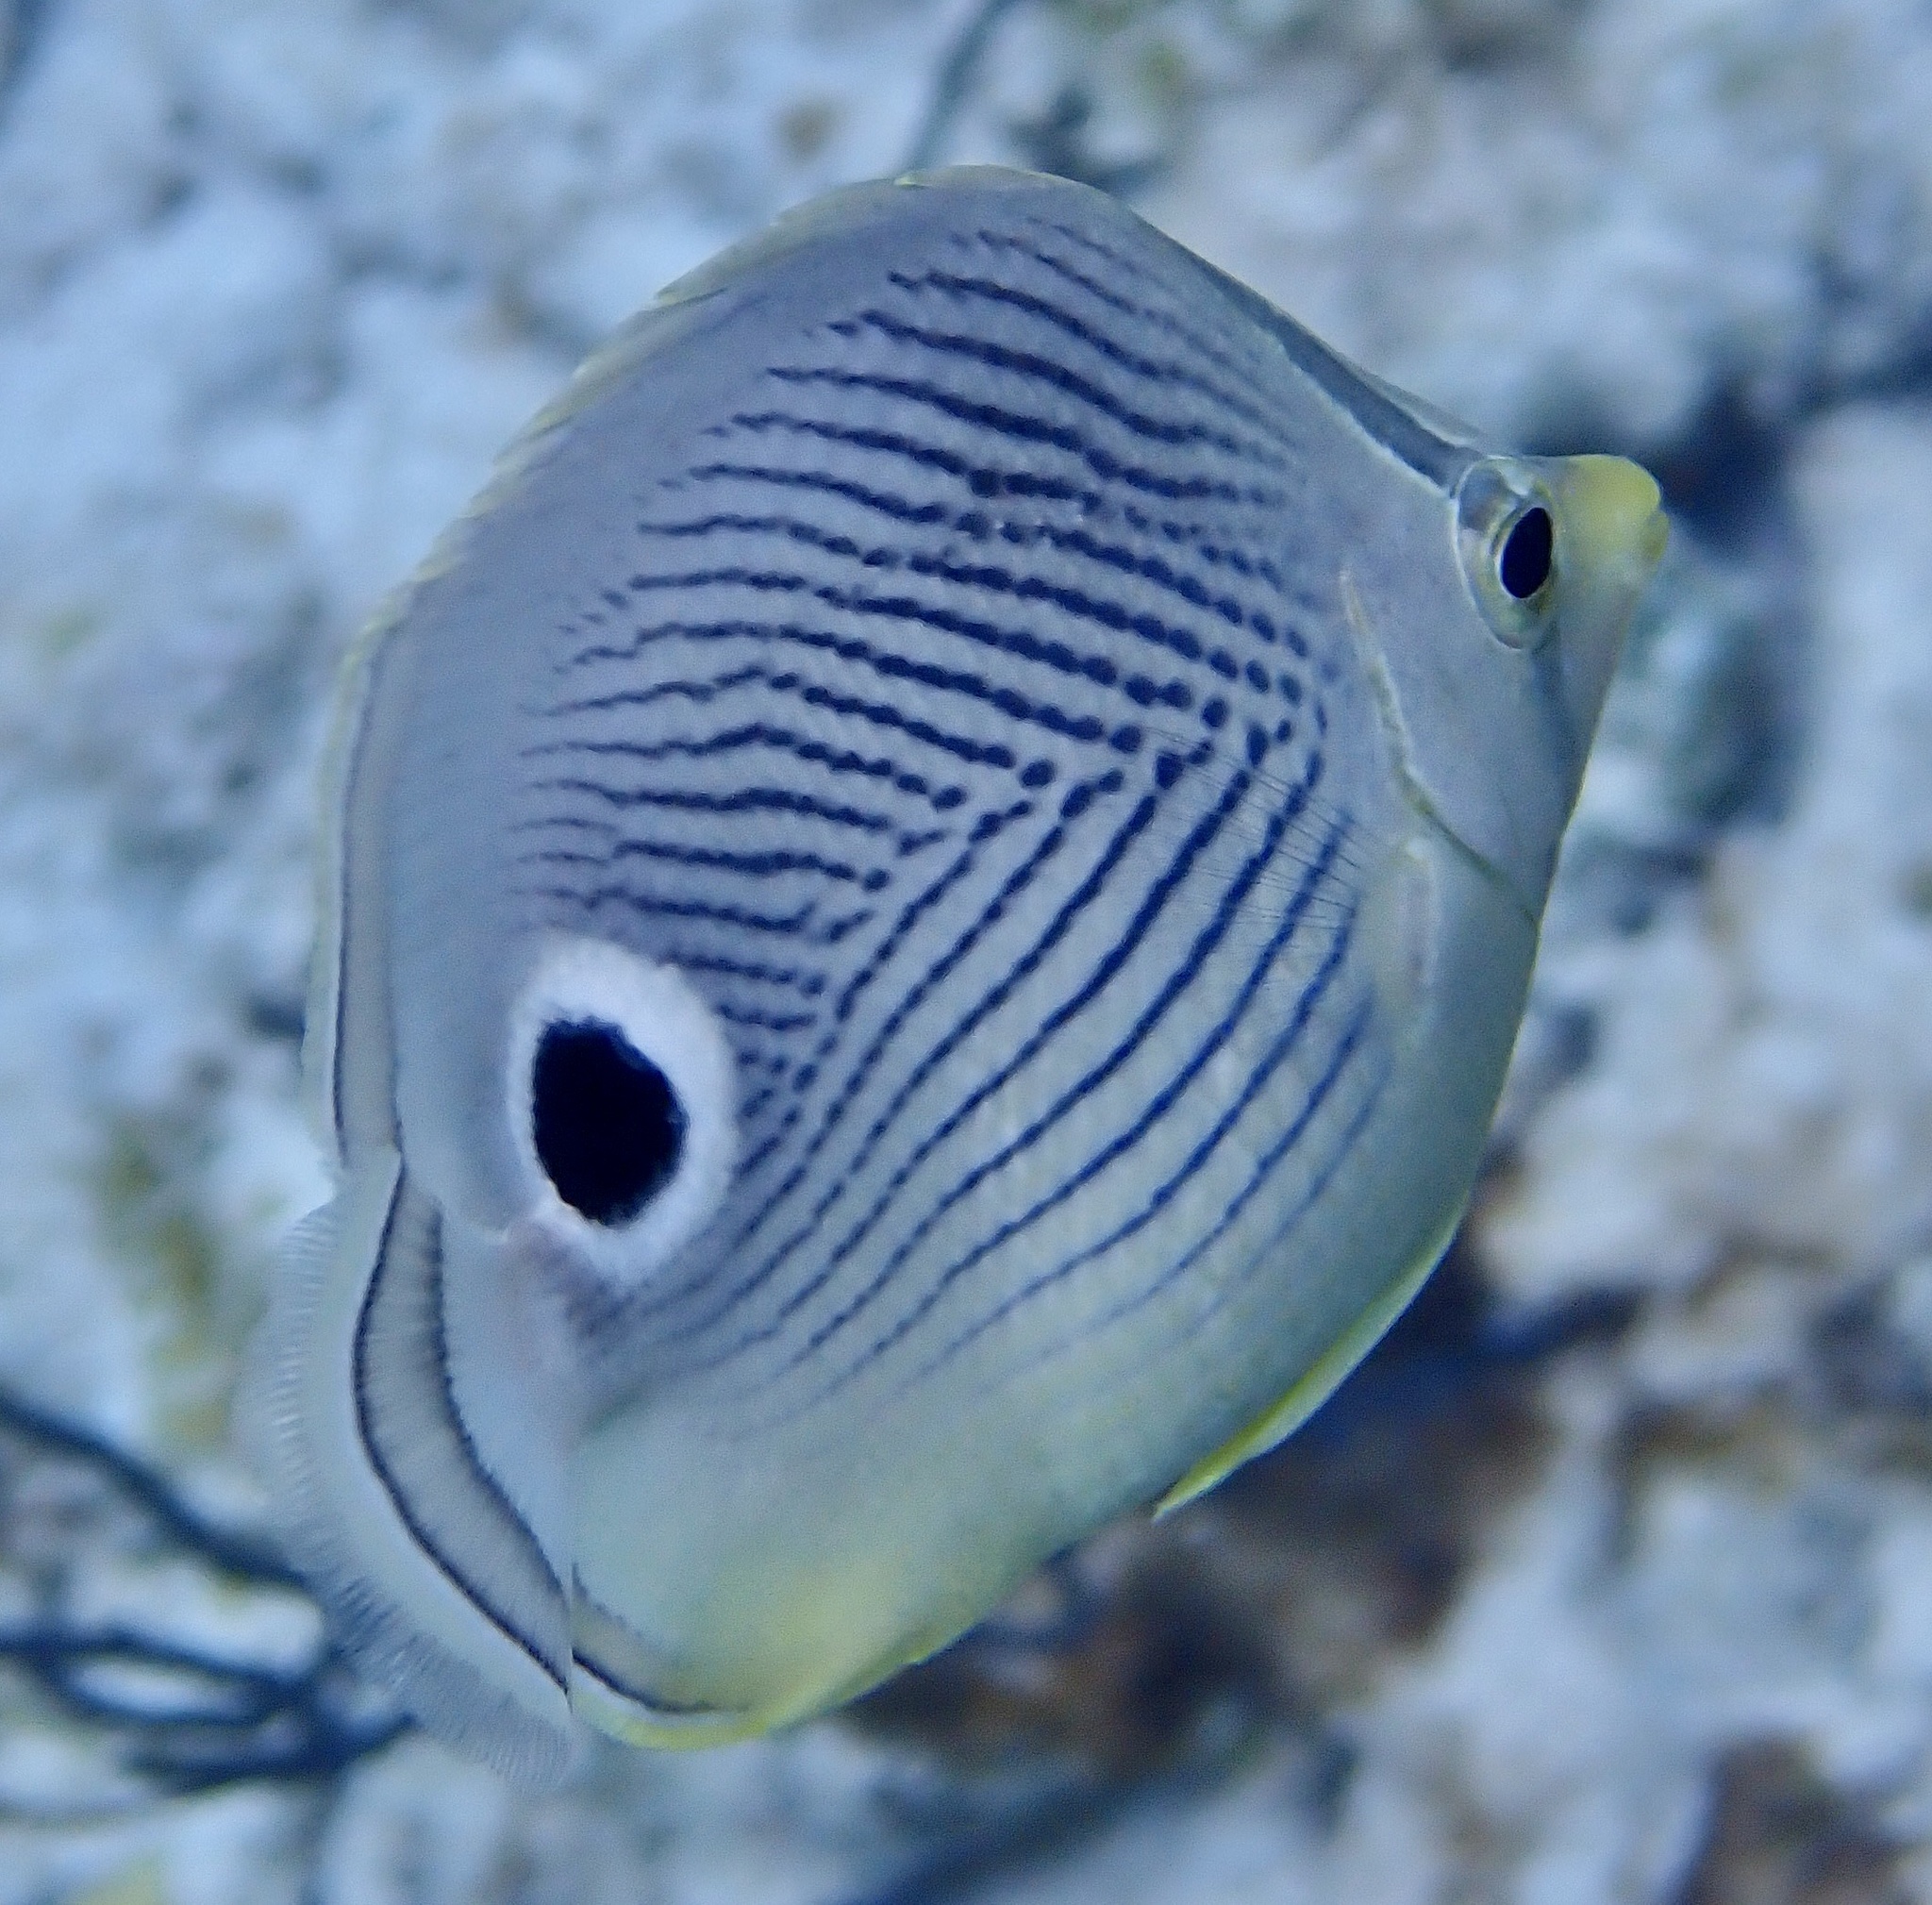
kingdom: Animalia
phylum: Chordata
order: Perciformes
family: Chaetodontidae
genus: Chaetodon
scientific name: Chaetodon capistratus
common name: Kete
